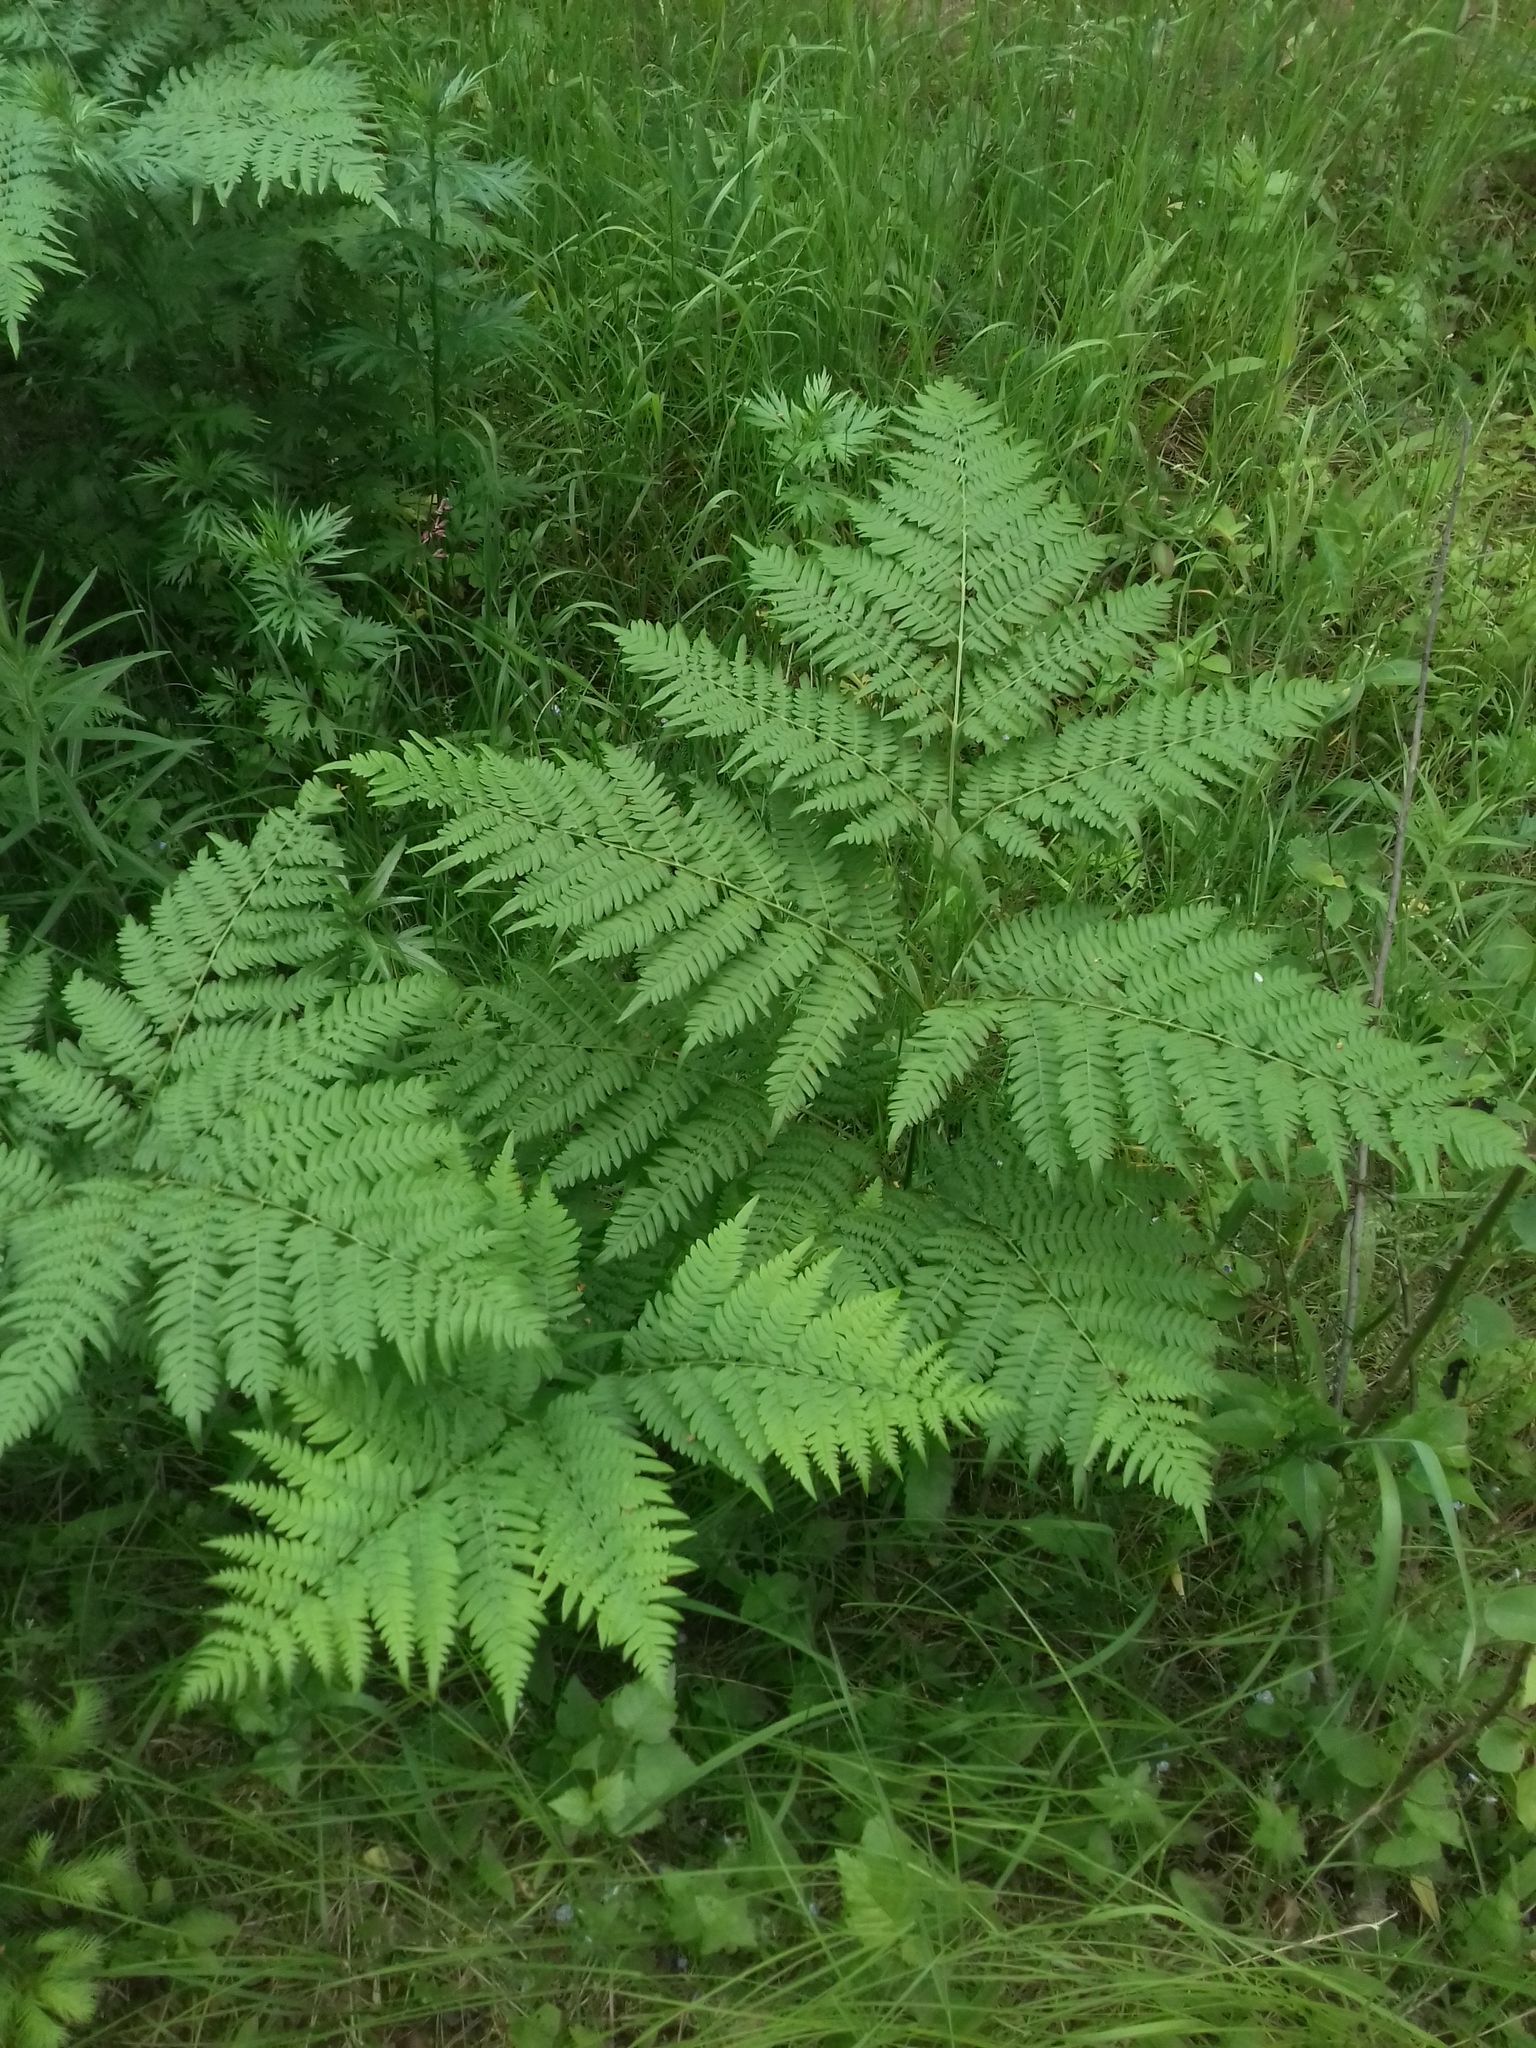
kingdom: Plantae
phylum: Tracheophyta
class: Polypodiopsida
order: Polypodiales
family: Dennstaedtiaceae
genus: Pteridium
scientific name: Pteridium aquilinum
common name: Bracken
